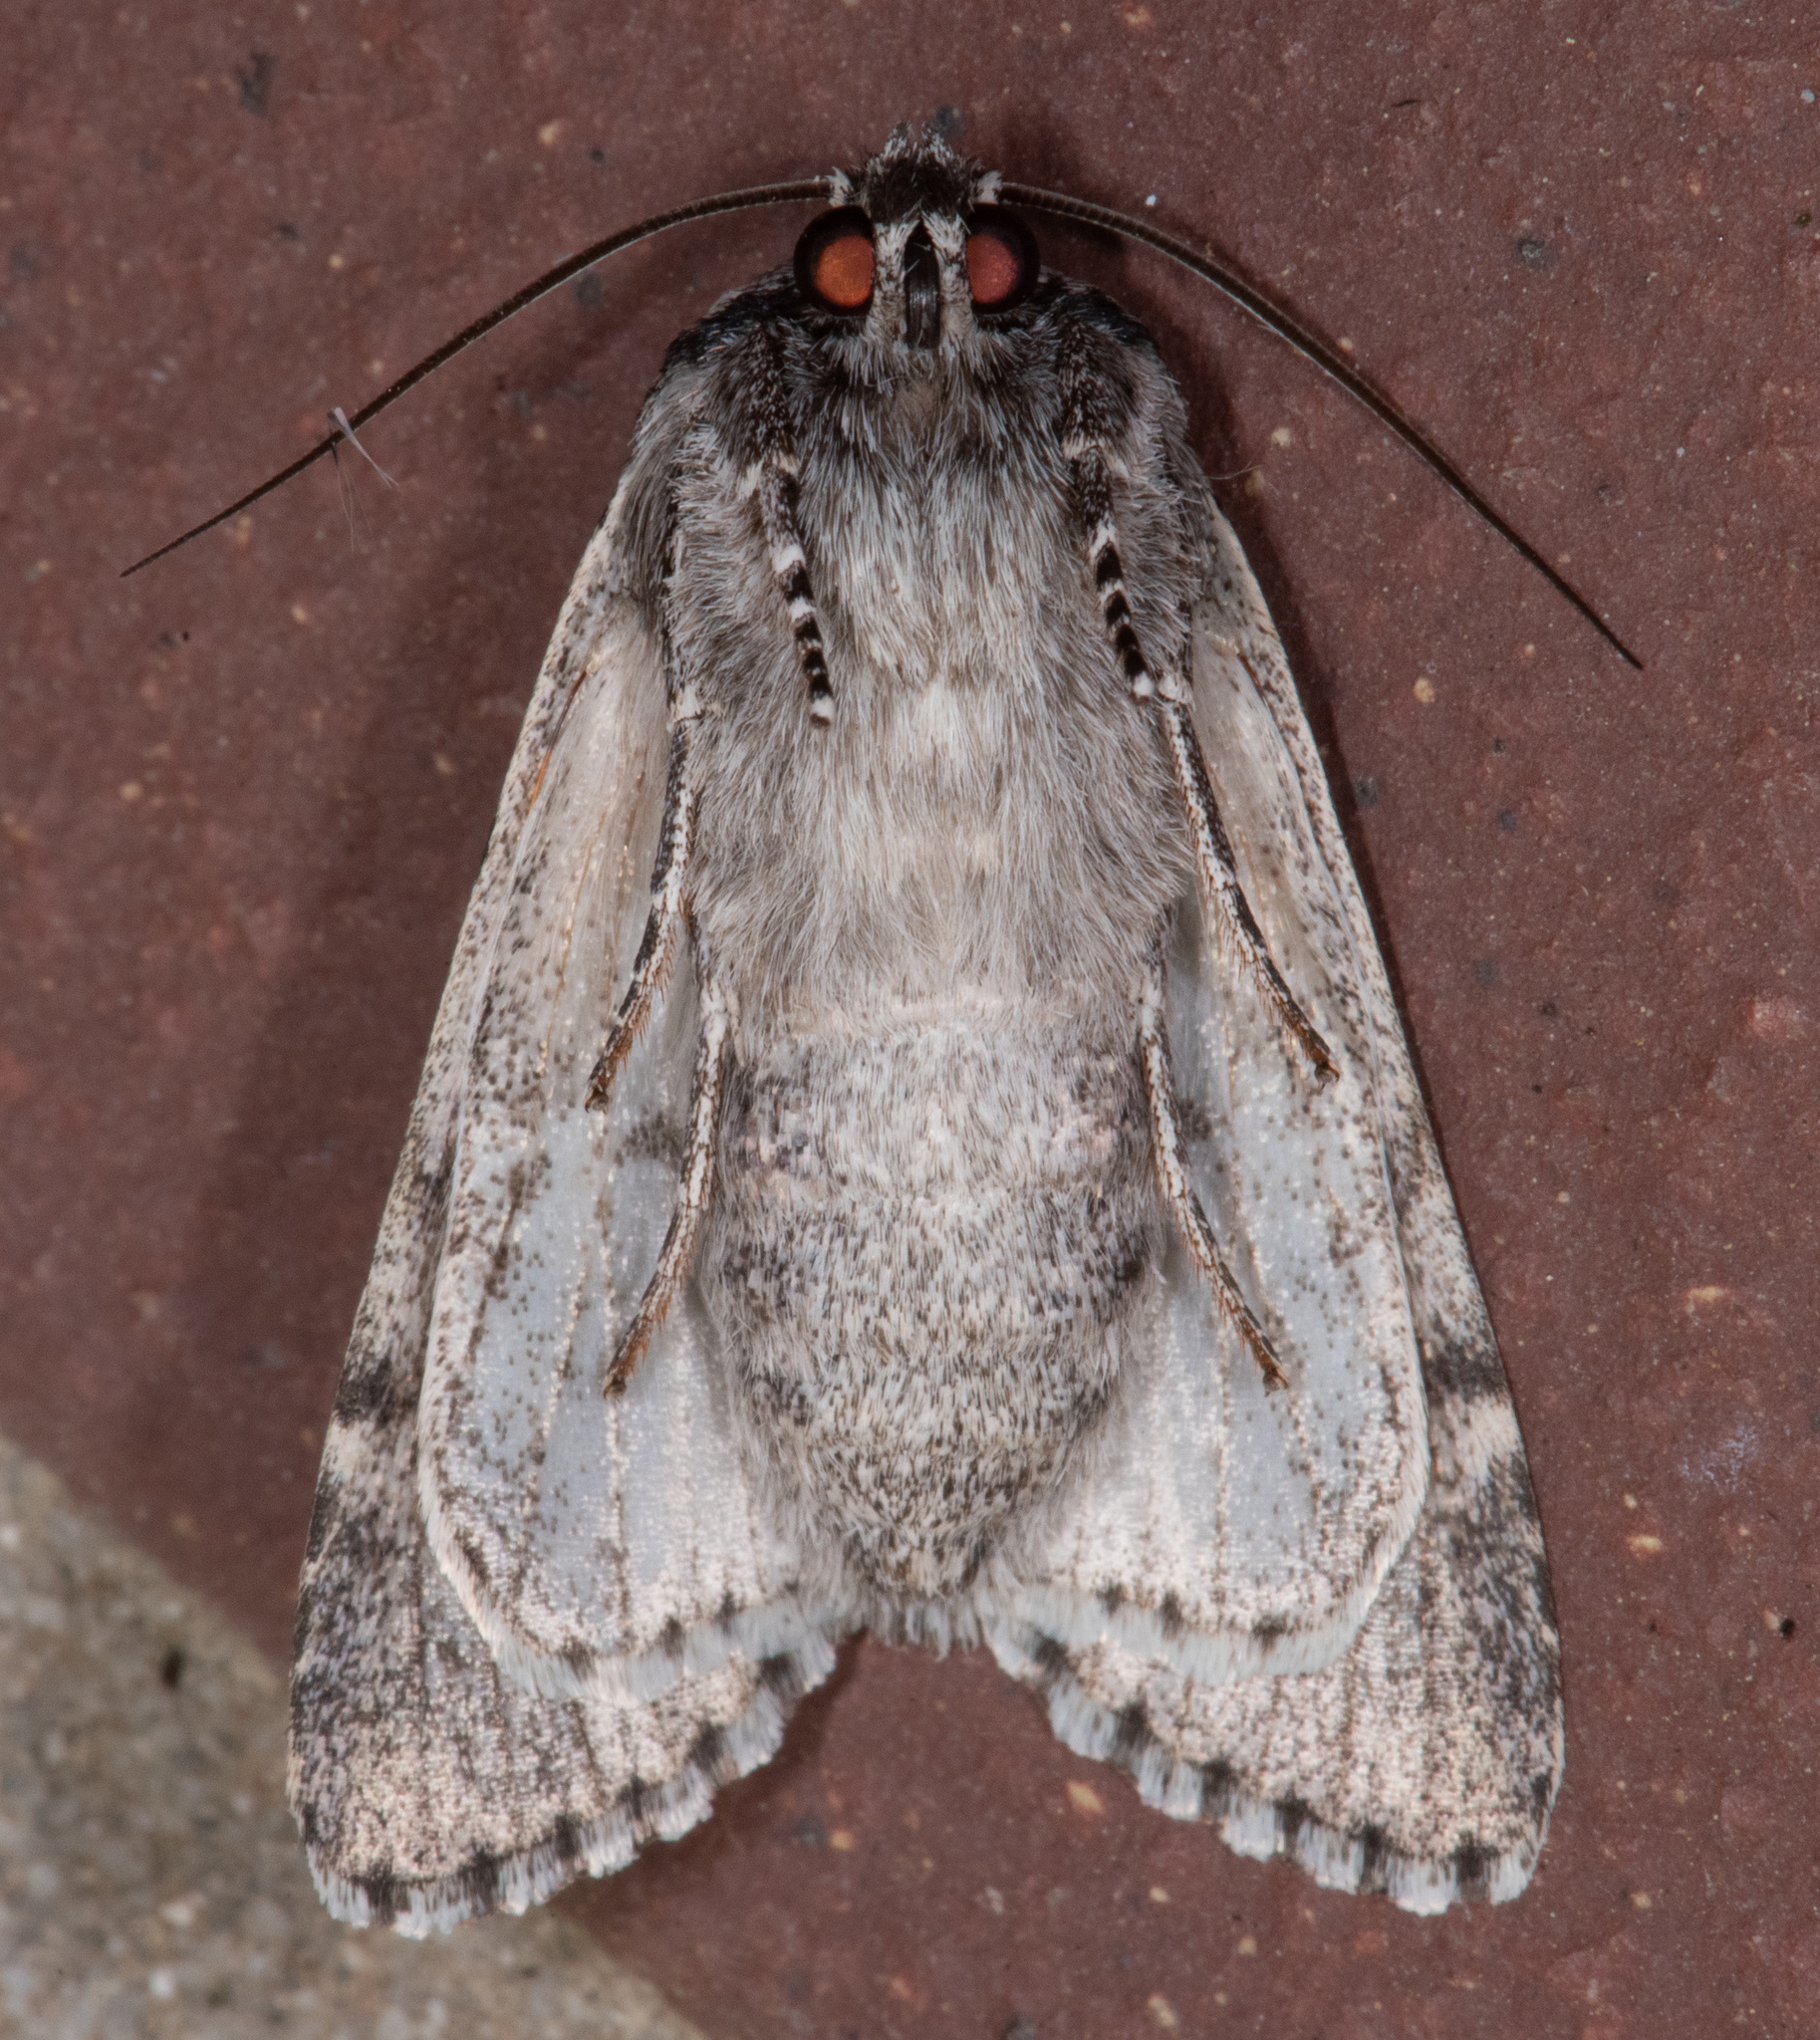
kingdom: Animalia
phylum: Arthropoda
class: Insecta
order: Lepidoptera
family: Noctuidae
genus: Acronicta
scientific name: Acronicta perdita
